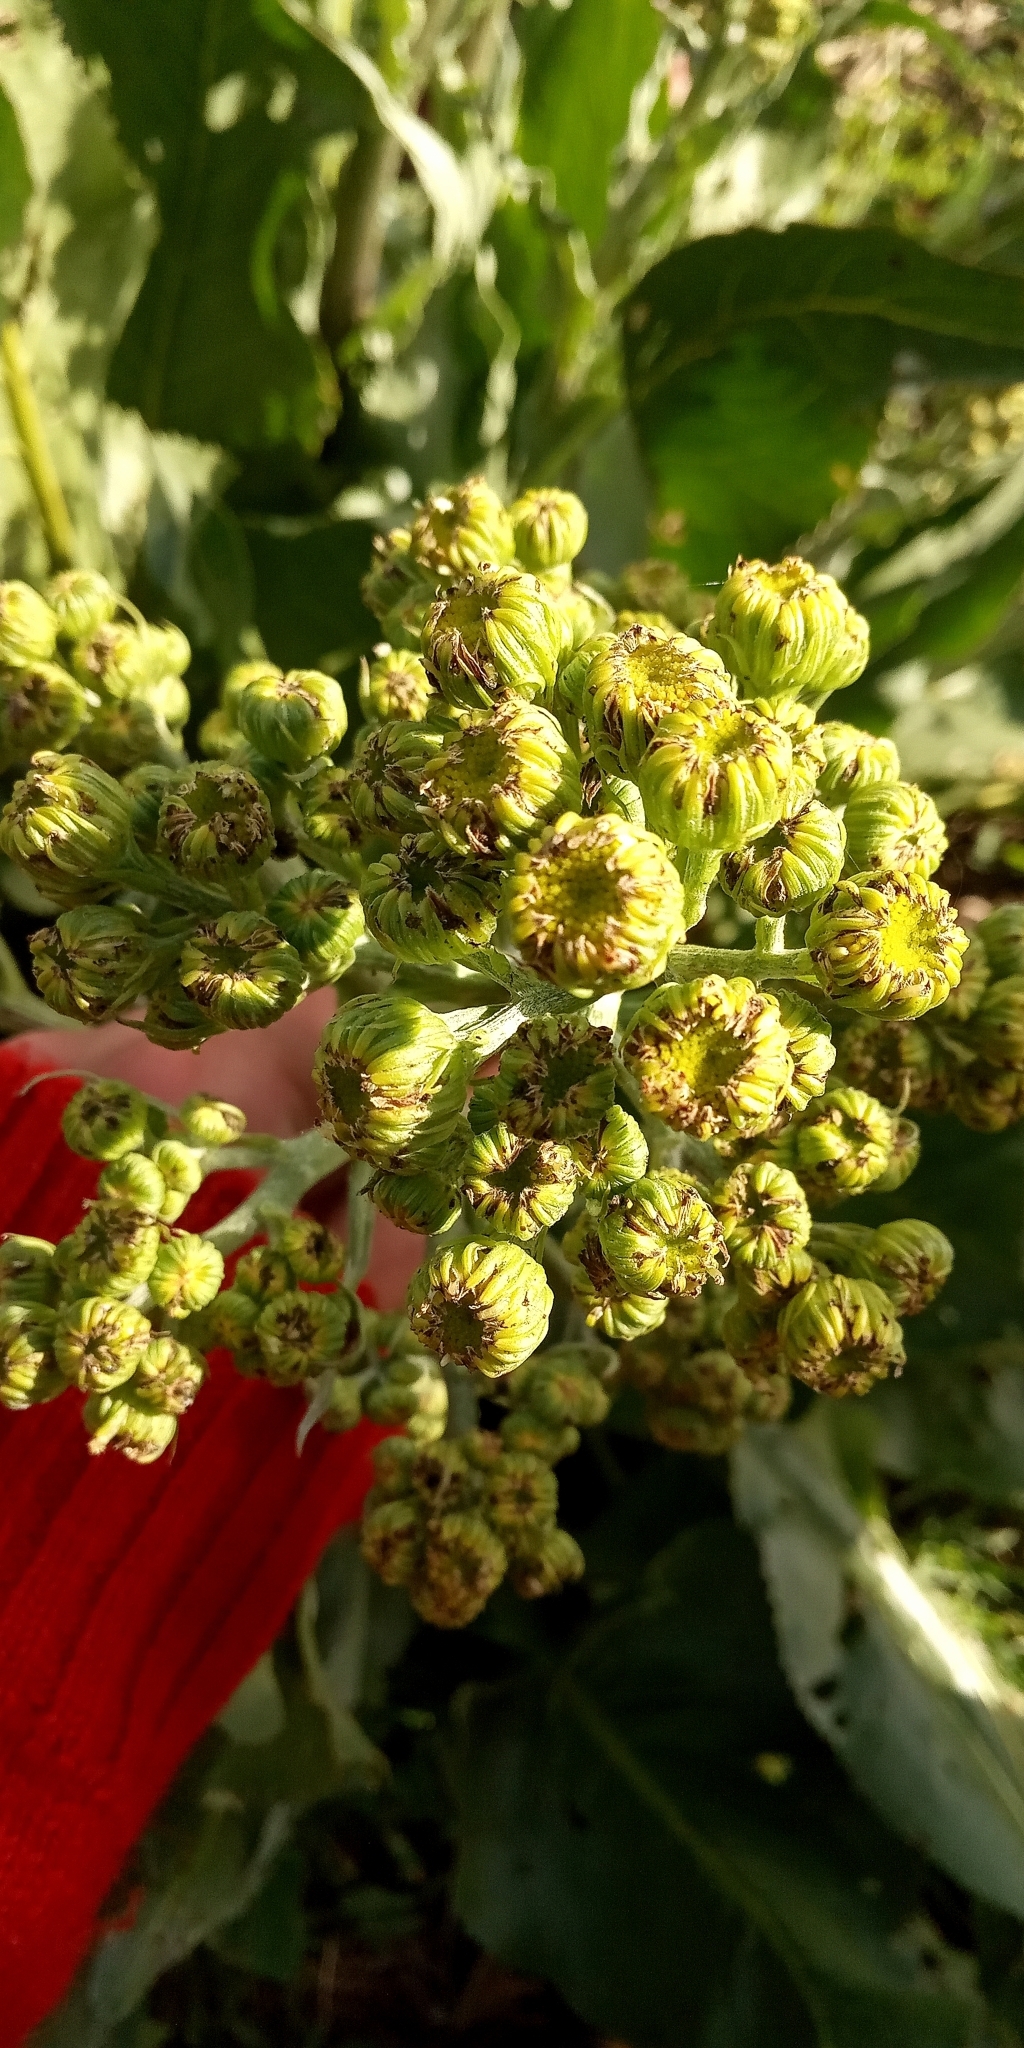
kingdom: Plantae
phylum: Tracheophyta
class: Magnoliopsida
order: Asterales
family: Asteraceae
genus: Senecio
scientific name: Senecio bonariensis
